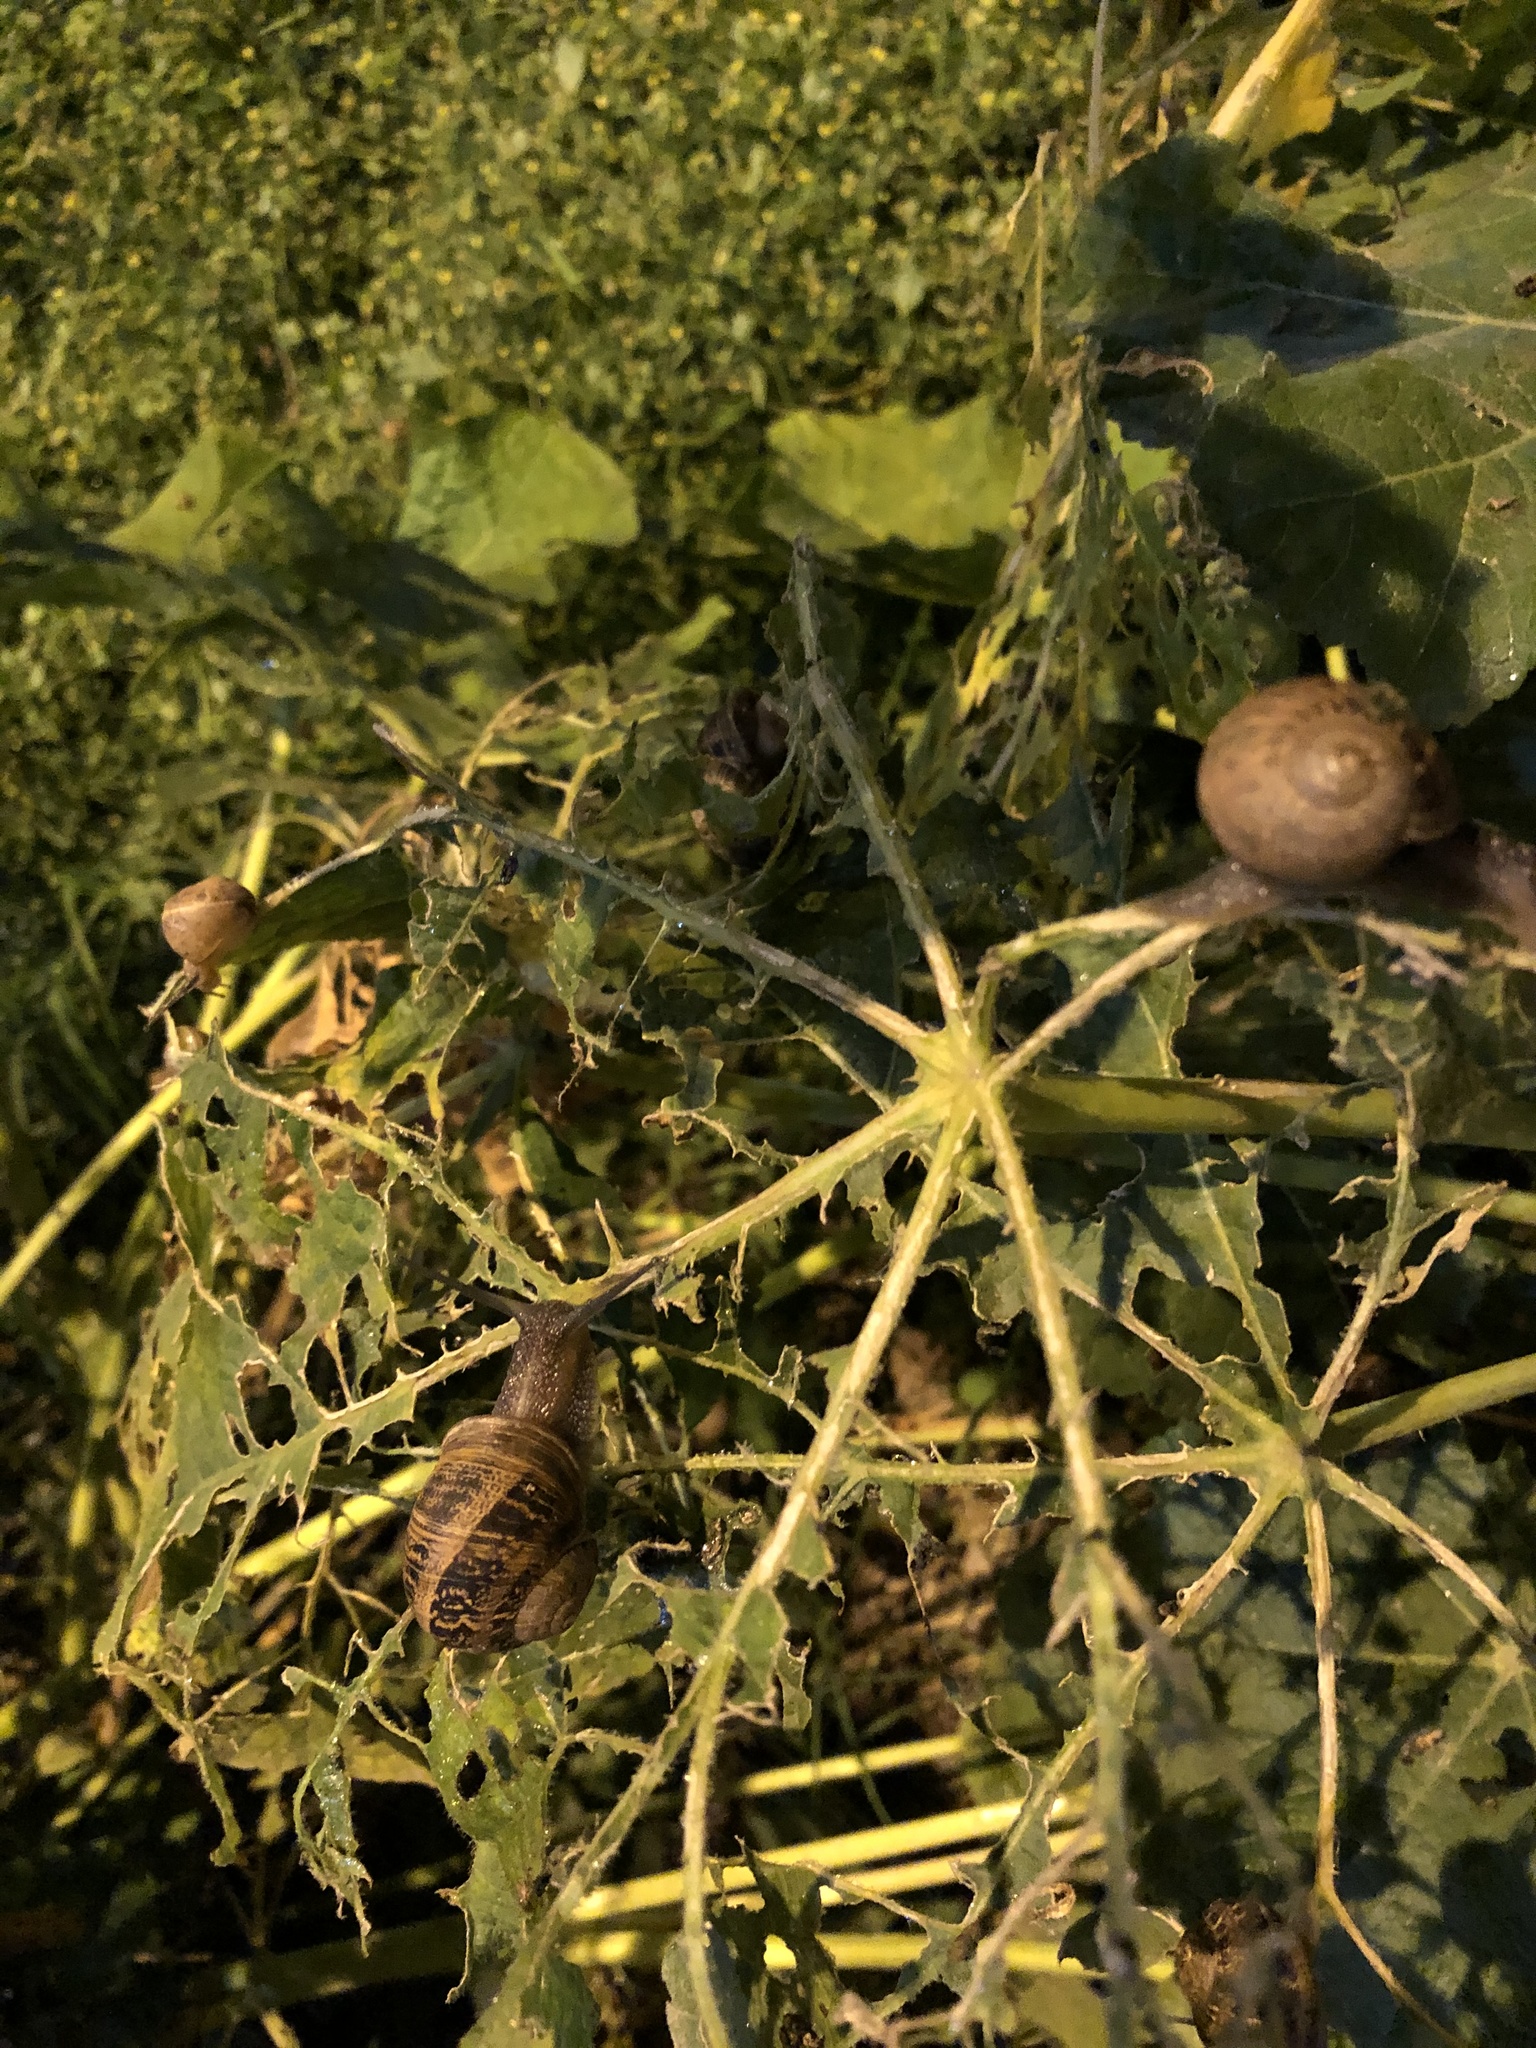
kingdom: Animalia
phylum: Mollusca
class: Gastropoda
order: Stylommatophora
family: Helicidae
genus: Cornu
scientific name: Cornu aspersum
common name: Brown garden snail
